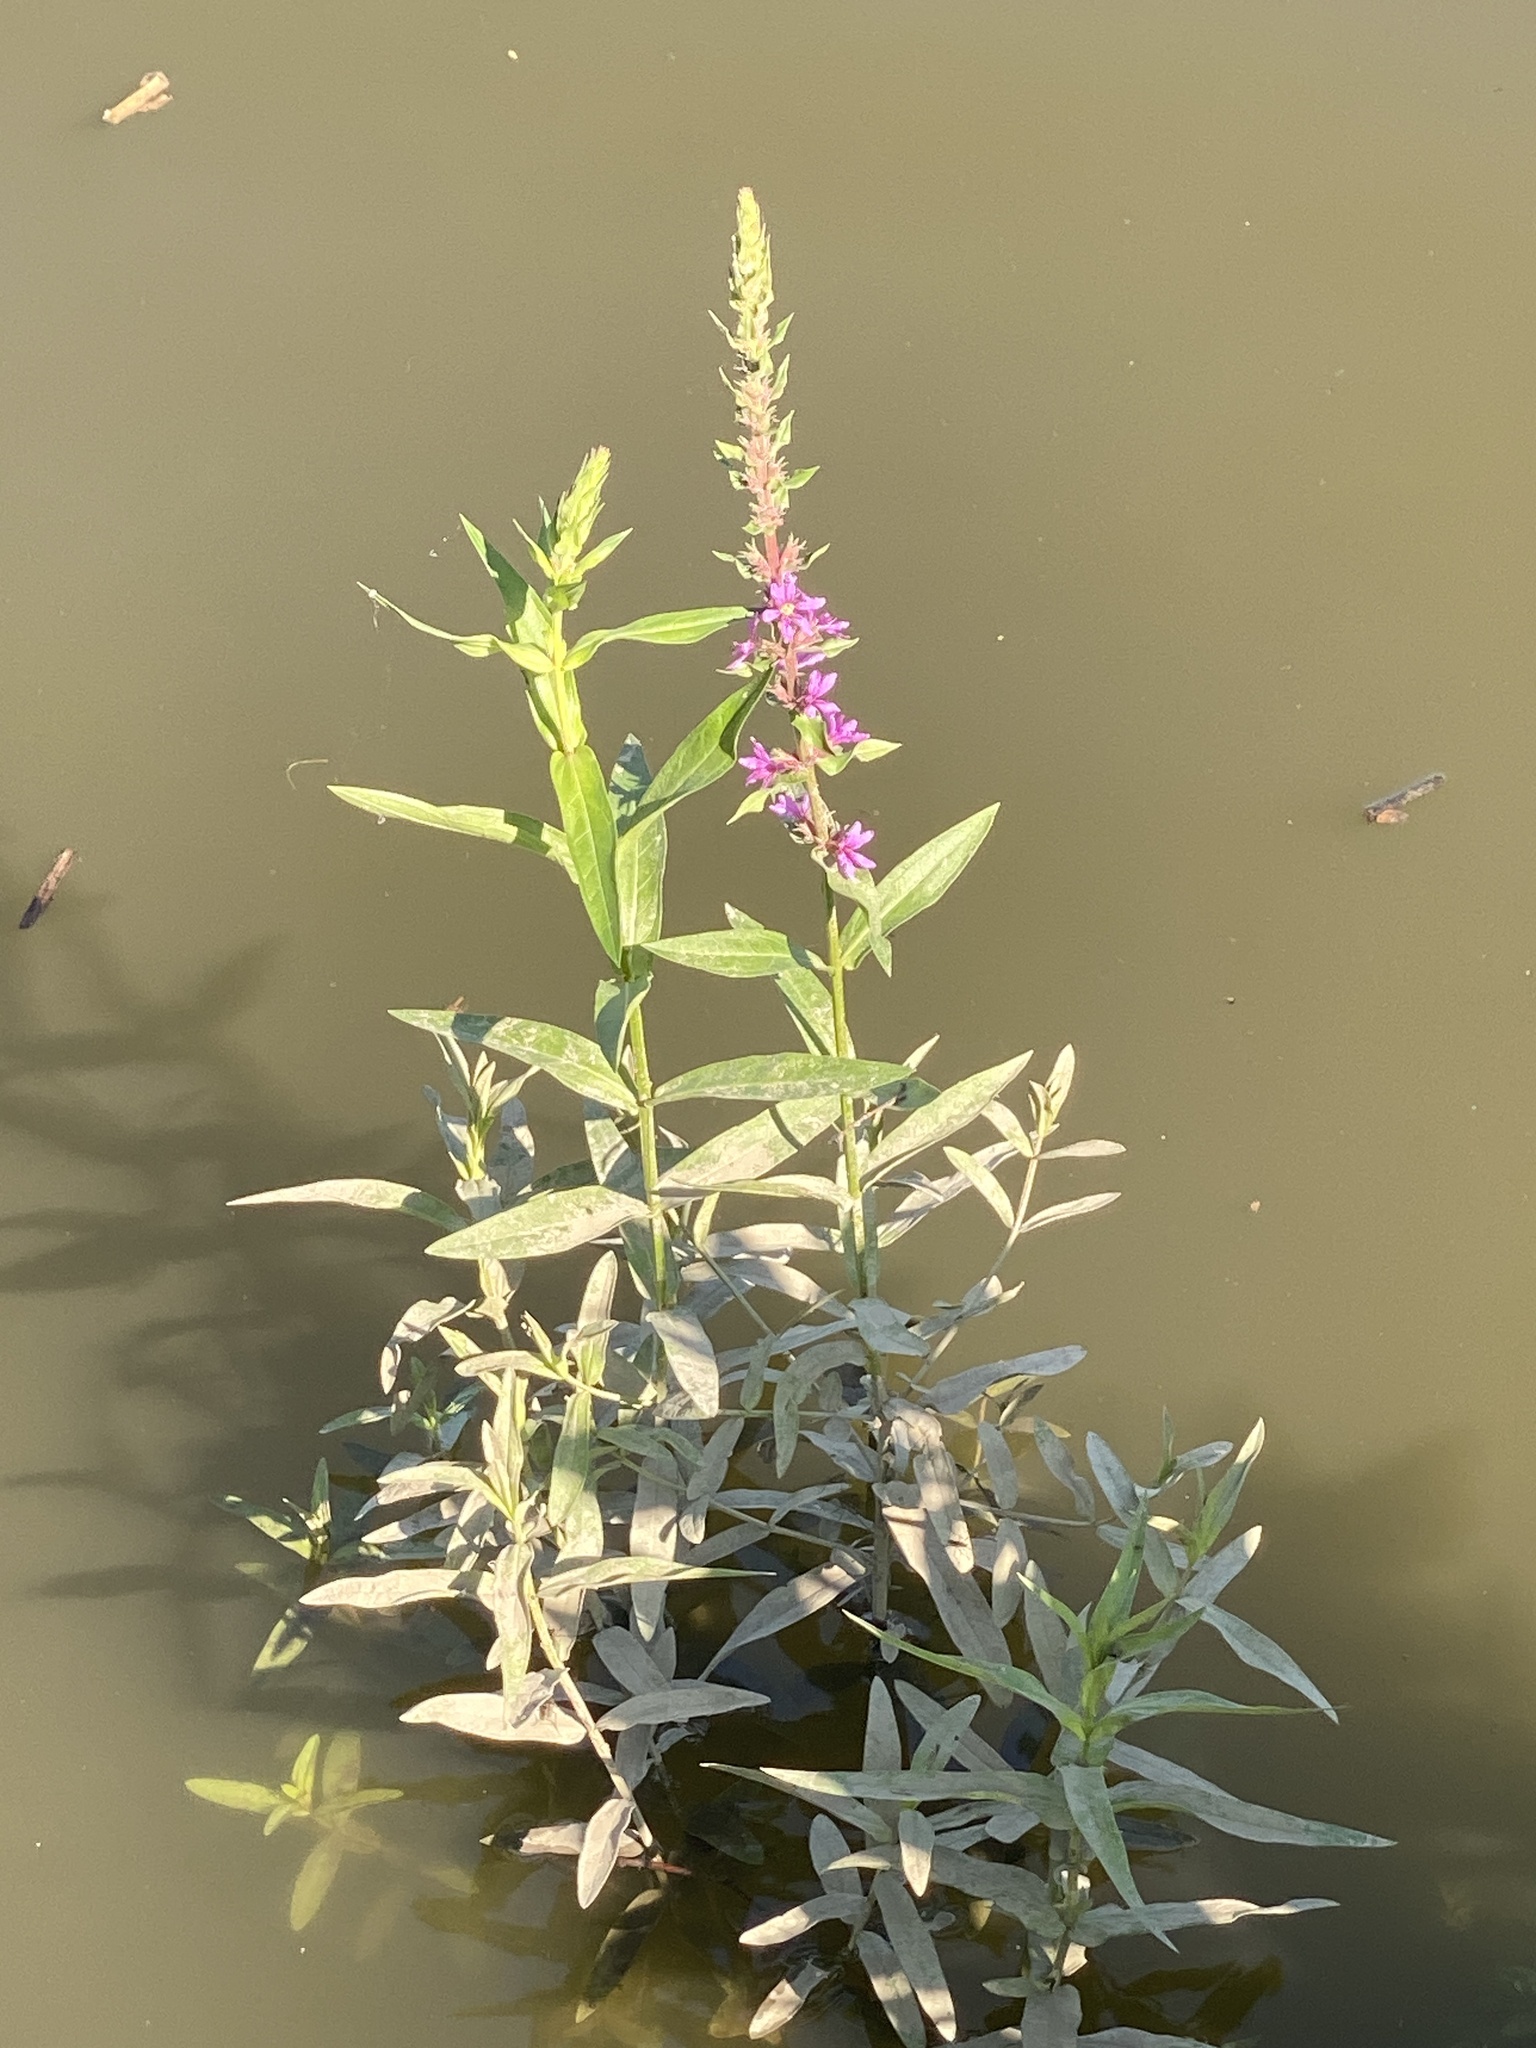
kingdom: Plantae
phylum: Tracheophyta
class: Magnoliopsida
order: Myrtales
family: Lythraceae
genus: Lythrum
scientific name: Lythrum salicaria
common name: Purple loosestrife
